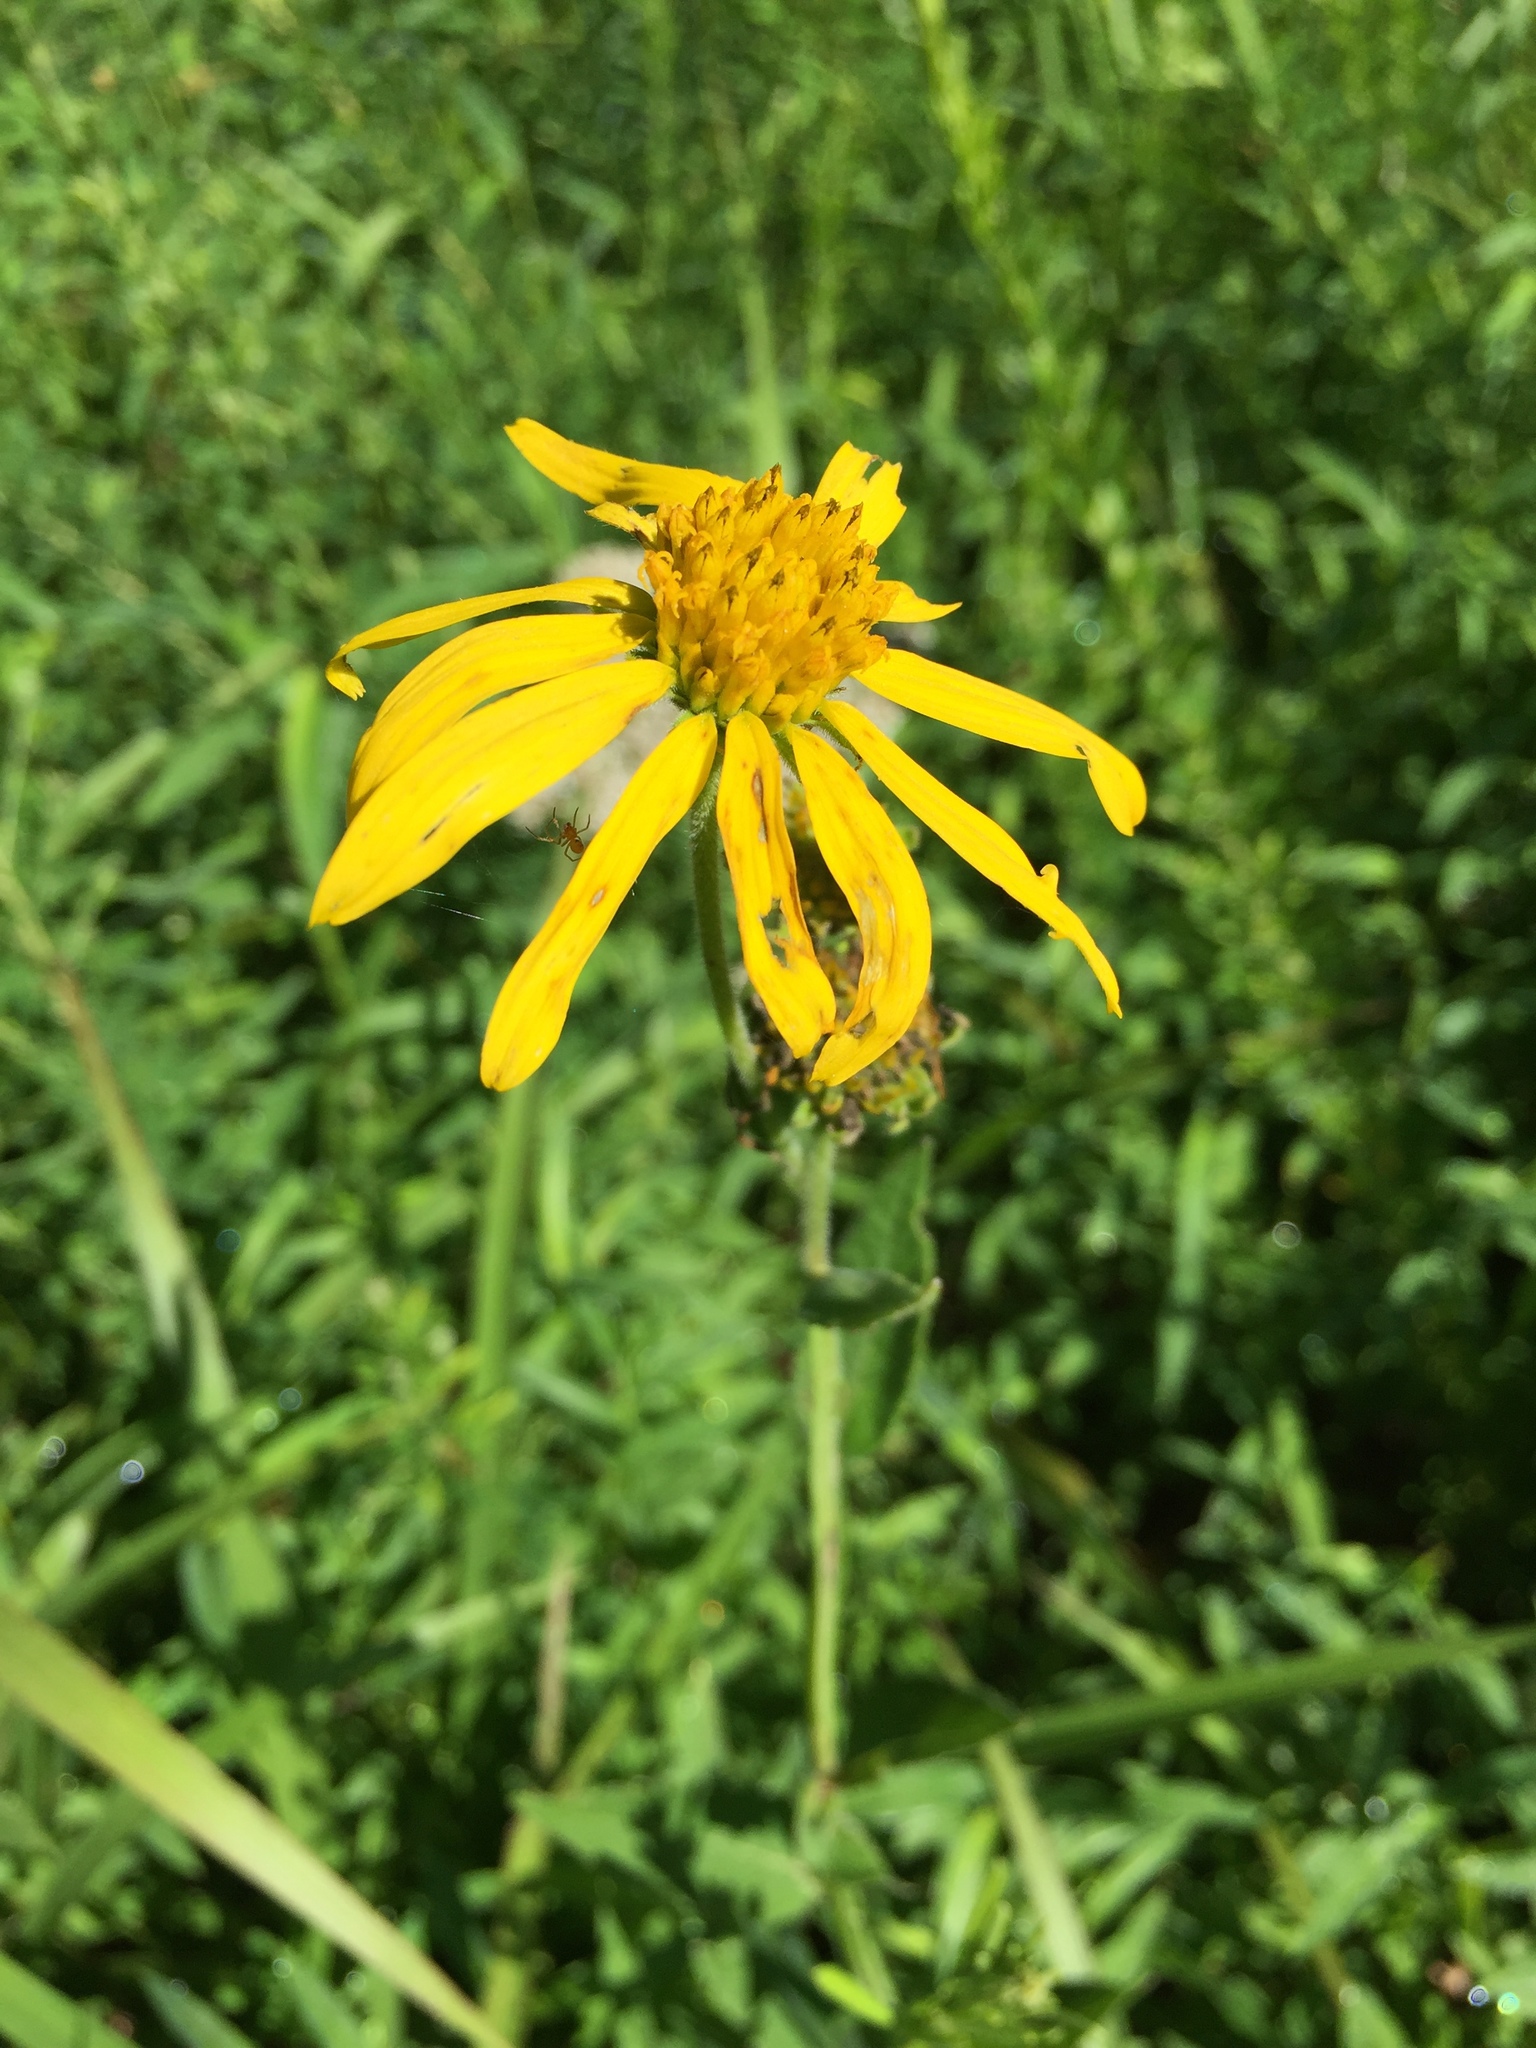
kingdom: Plantae
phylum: Tracheophyta
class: Magnoliopsida
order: Asterales
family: Asteraceae
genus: Verbesina
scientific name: Verbesina helianthoides
